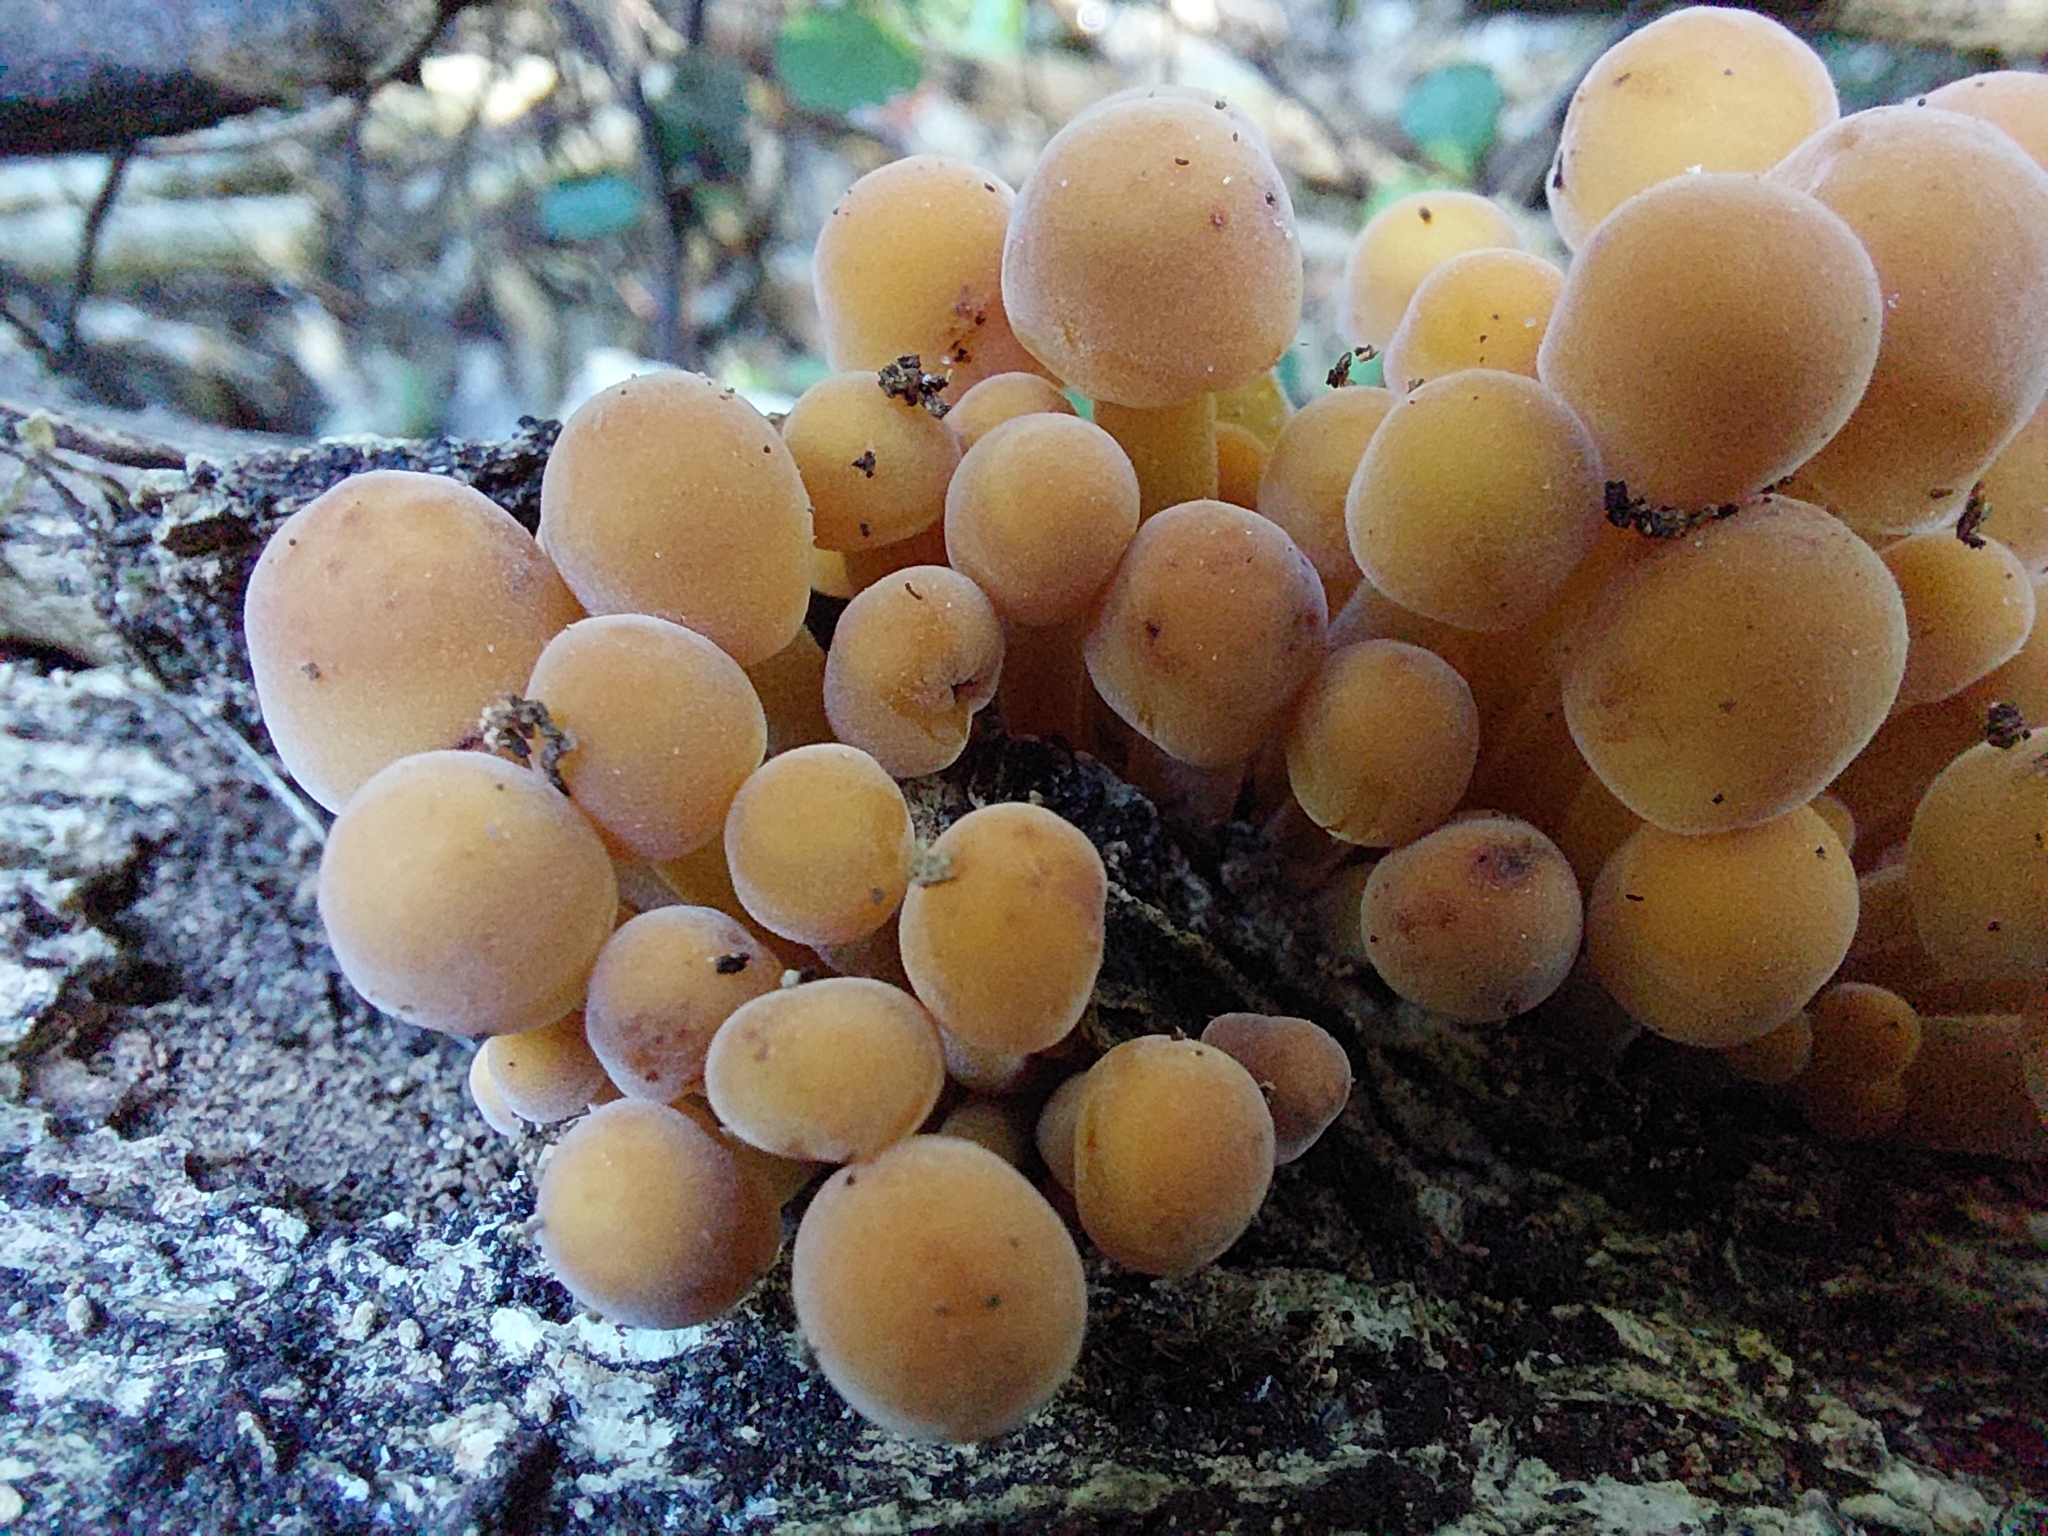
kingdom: Fungi
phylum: Basidiomycota
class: Agaricomycetes
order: Agaricales
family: Physalacriaceae
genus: Flammulina
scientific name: Flammulina velutipes
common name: Velvet shank
